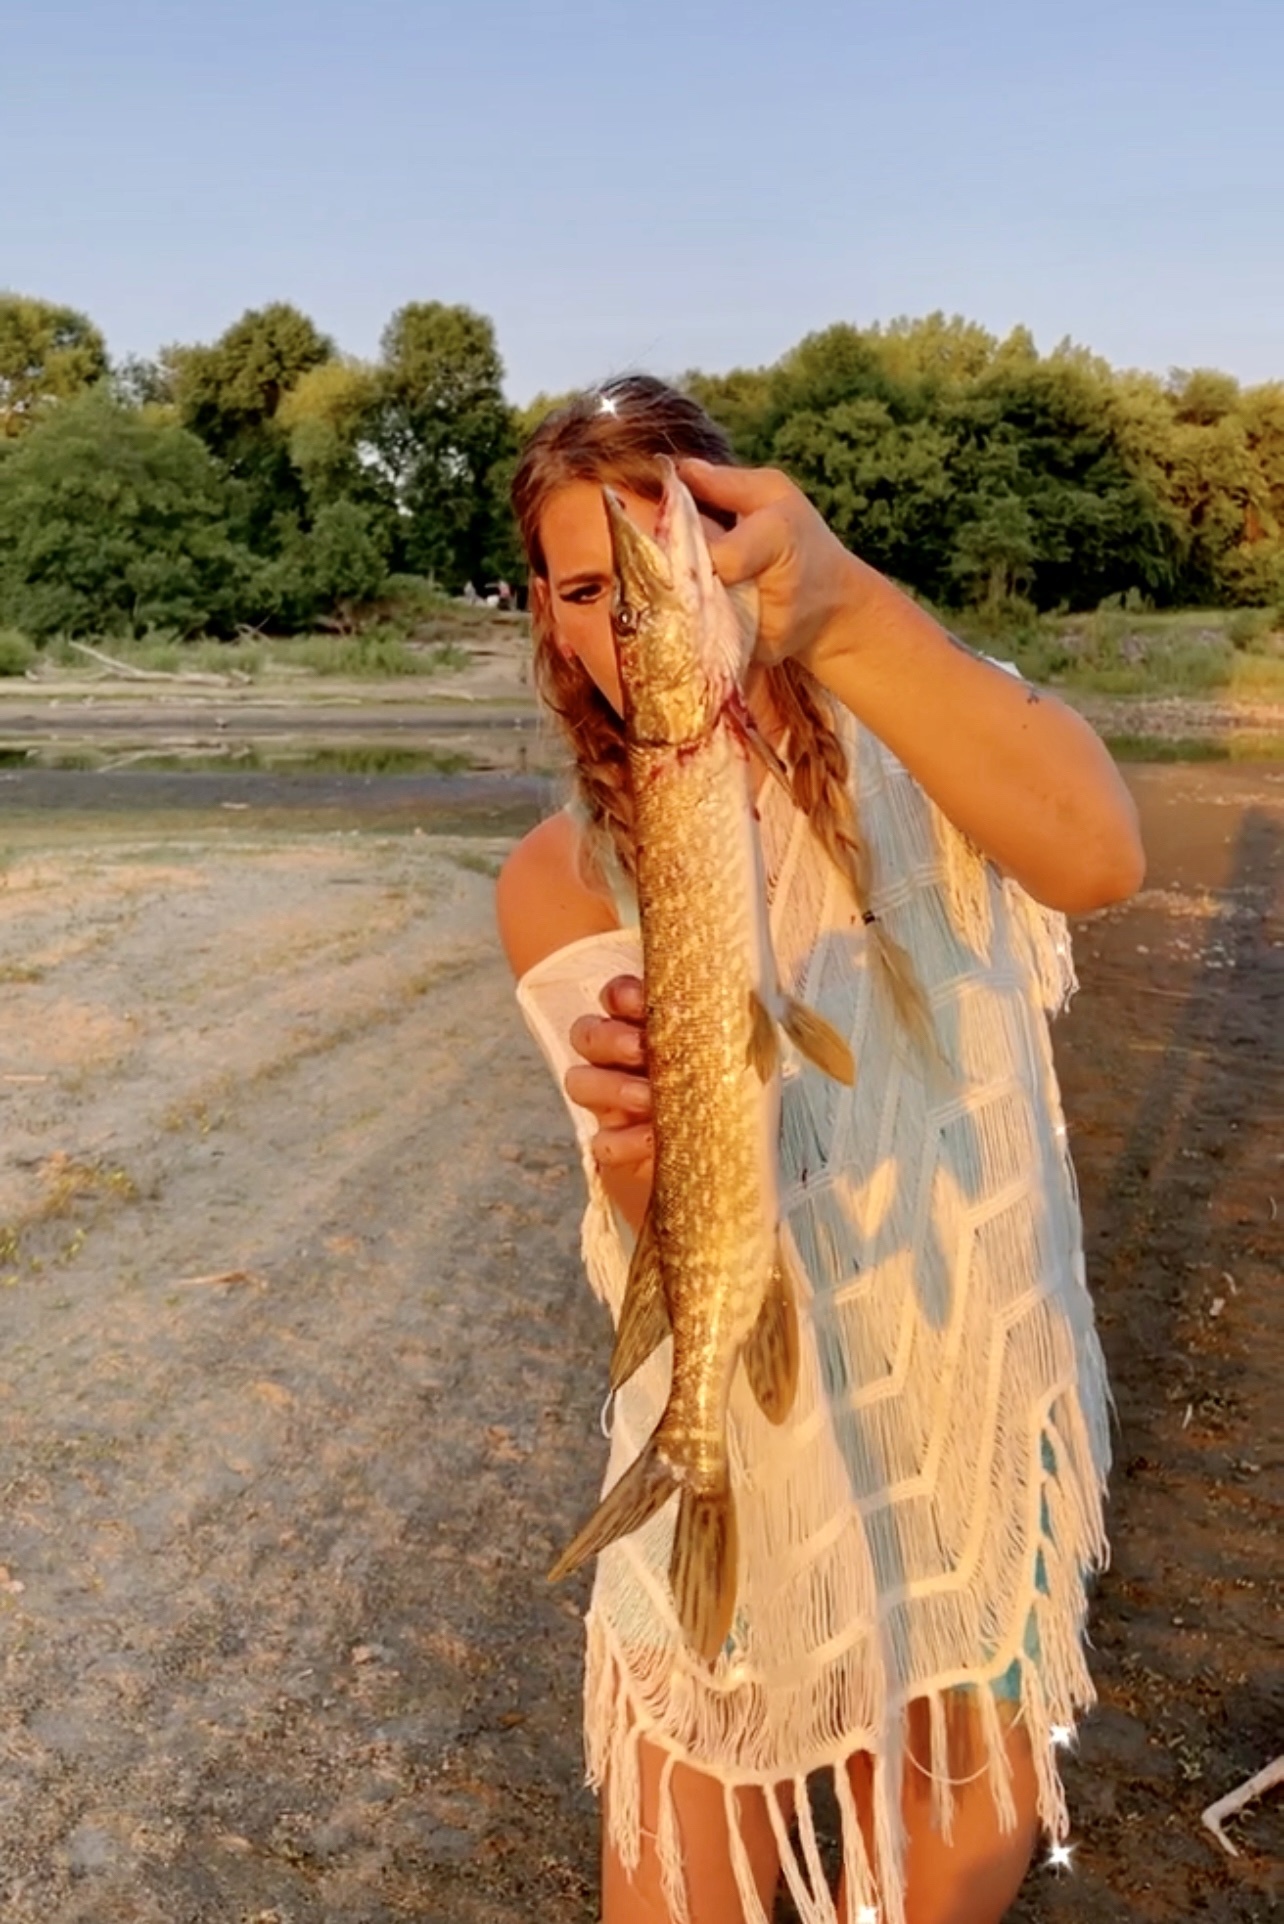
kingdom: Animalia
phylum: Chordata
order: Esociformes
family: Esocidae
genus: Esox
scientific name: Esox lucius
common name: Northern pike
